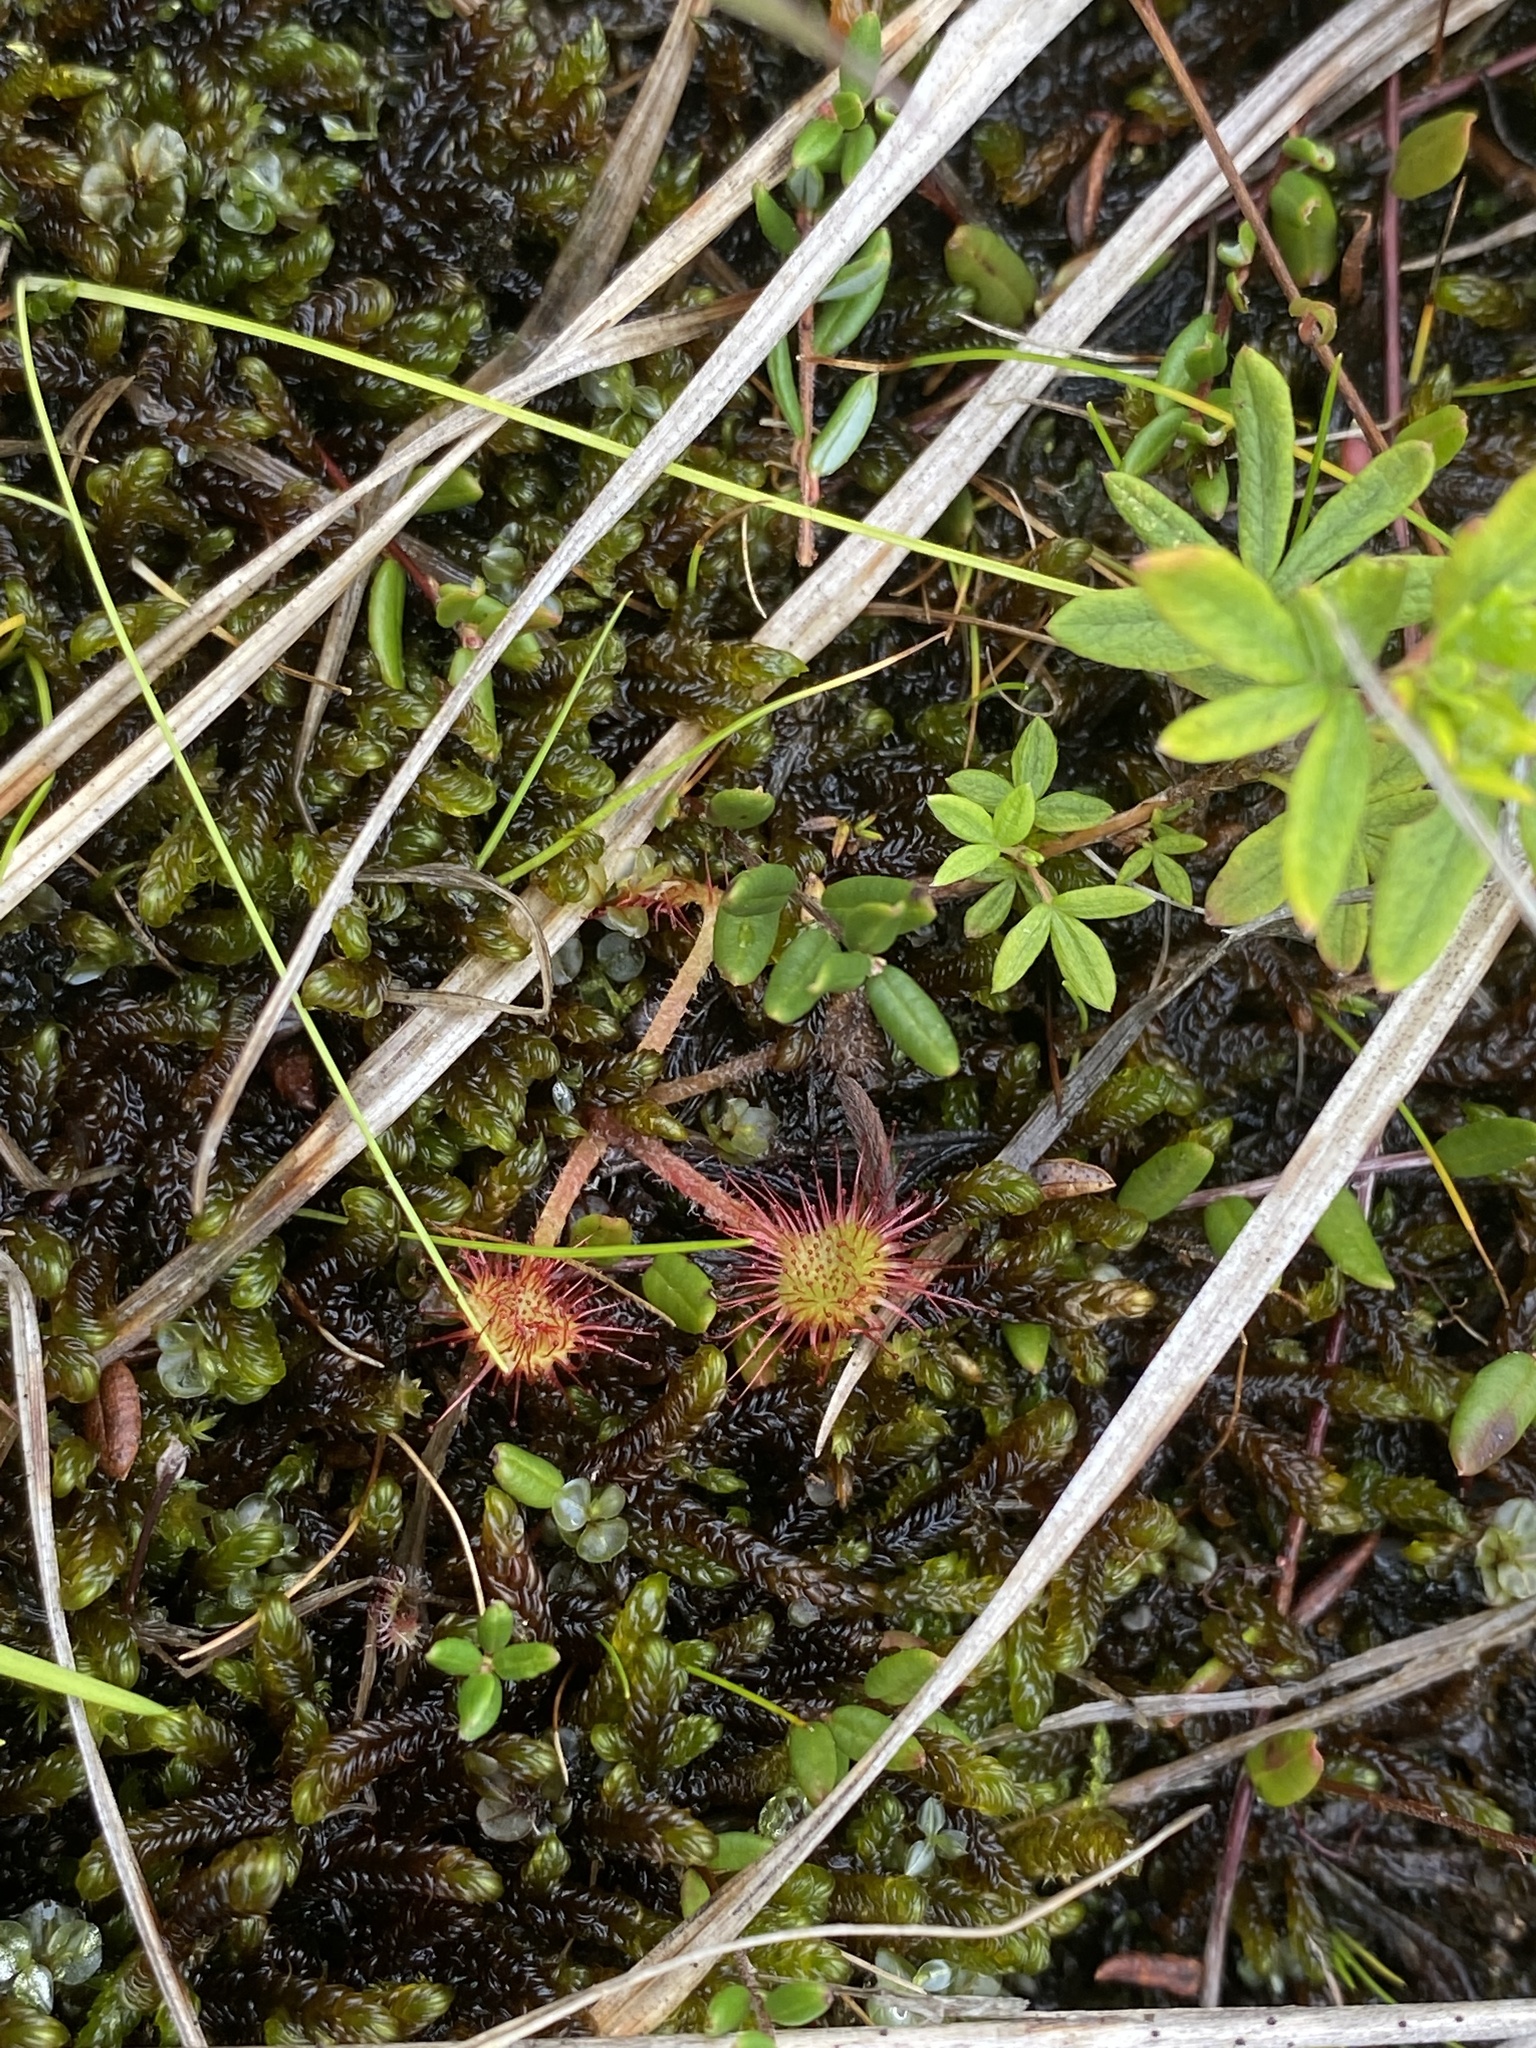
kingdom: Plantae
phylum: Tracheophyta
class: Magnoliopsida
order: Caryophyllales
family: Droseraceae
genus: Drosera
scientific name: Drosera rotundifolia
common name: Round-leaved sundew
